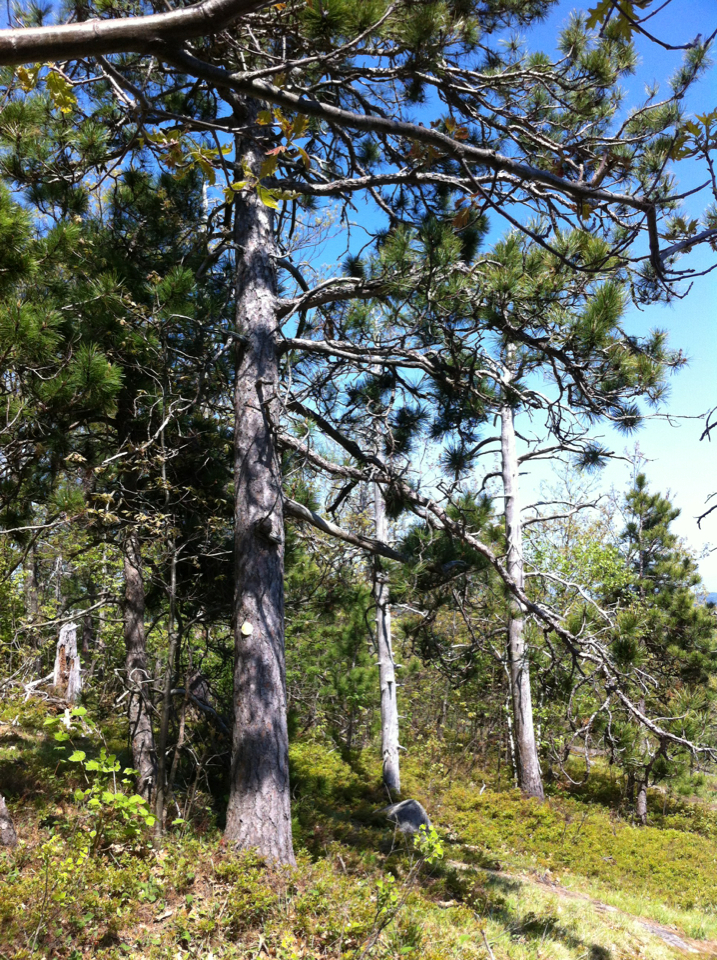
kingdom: Plantae
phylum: Tracheophyta
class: Pinopsida
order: Pinales
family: Pinaceae
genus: Pinus
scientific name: Pinus resinosa
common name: Norway pine
